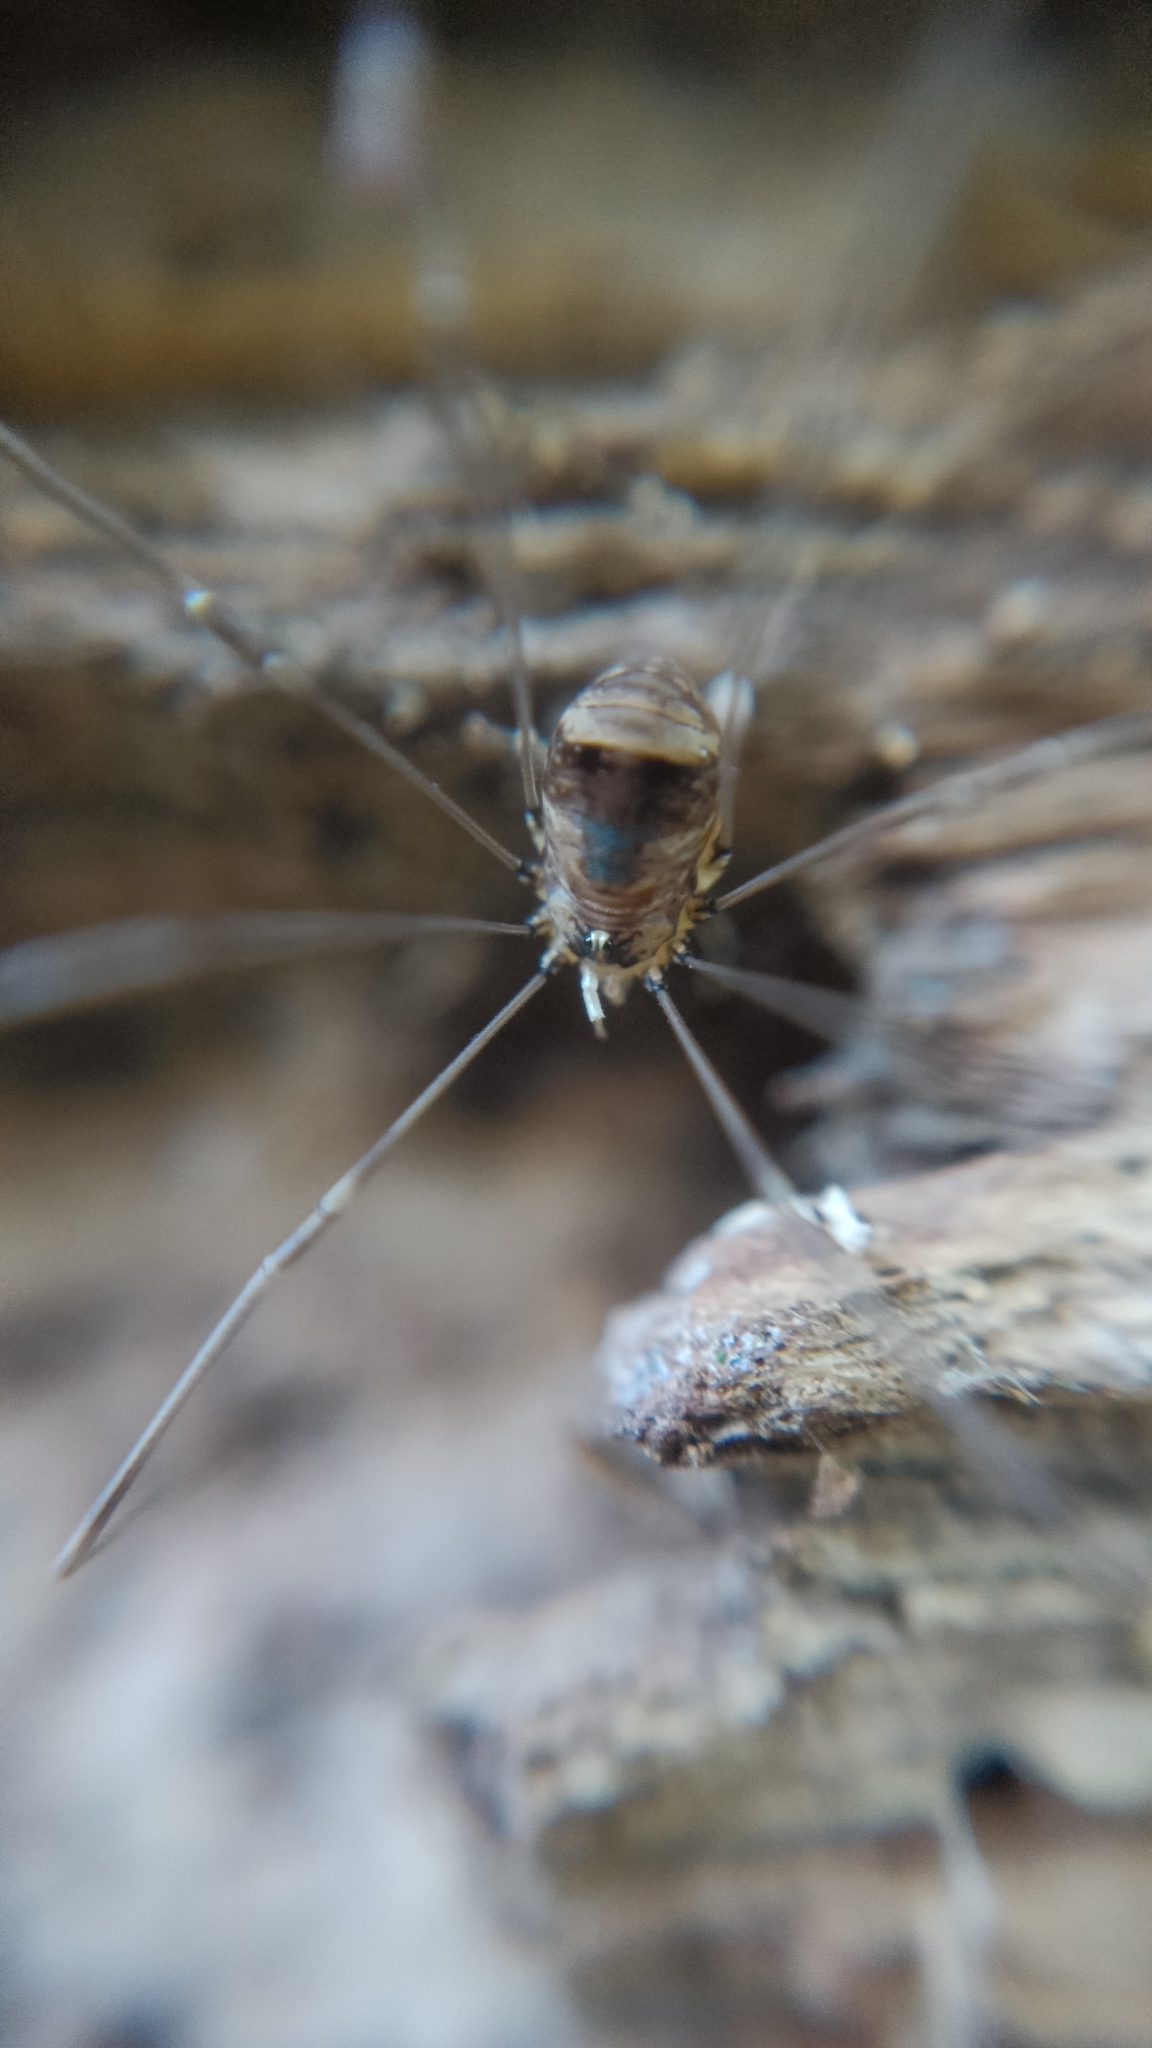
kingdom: Animalia
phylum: Arthropoda
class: Arachnida
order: Opiliones
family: Sclerosomatidae
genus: Leiobunum
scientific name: Leiobunum blackwalli
